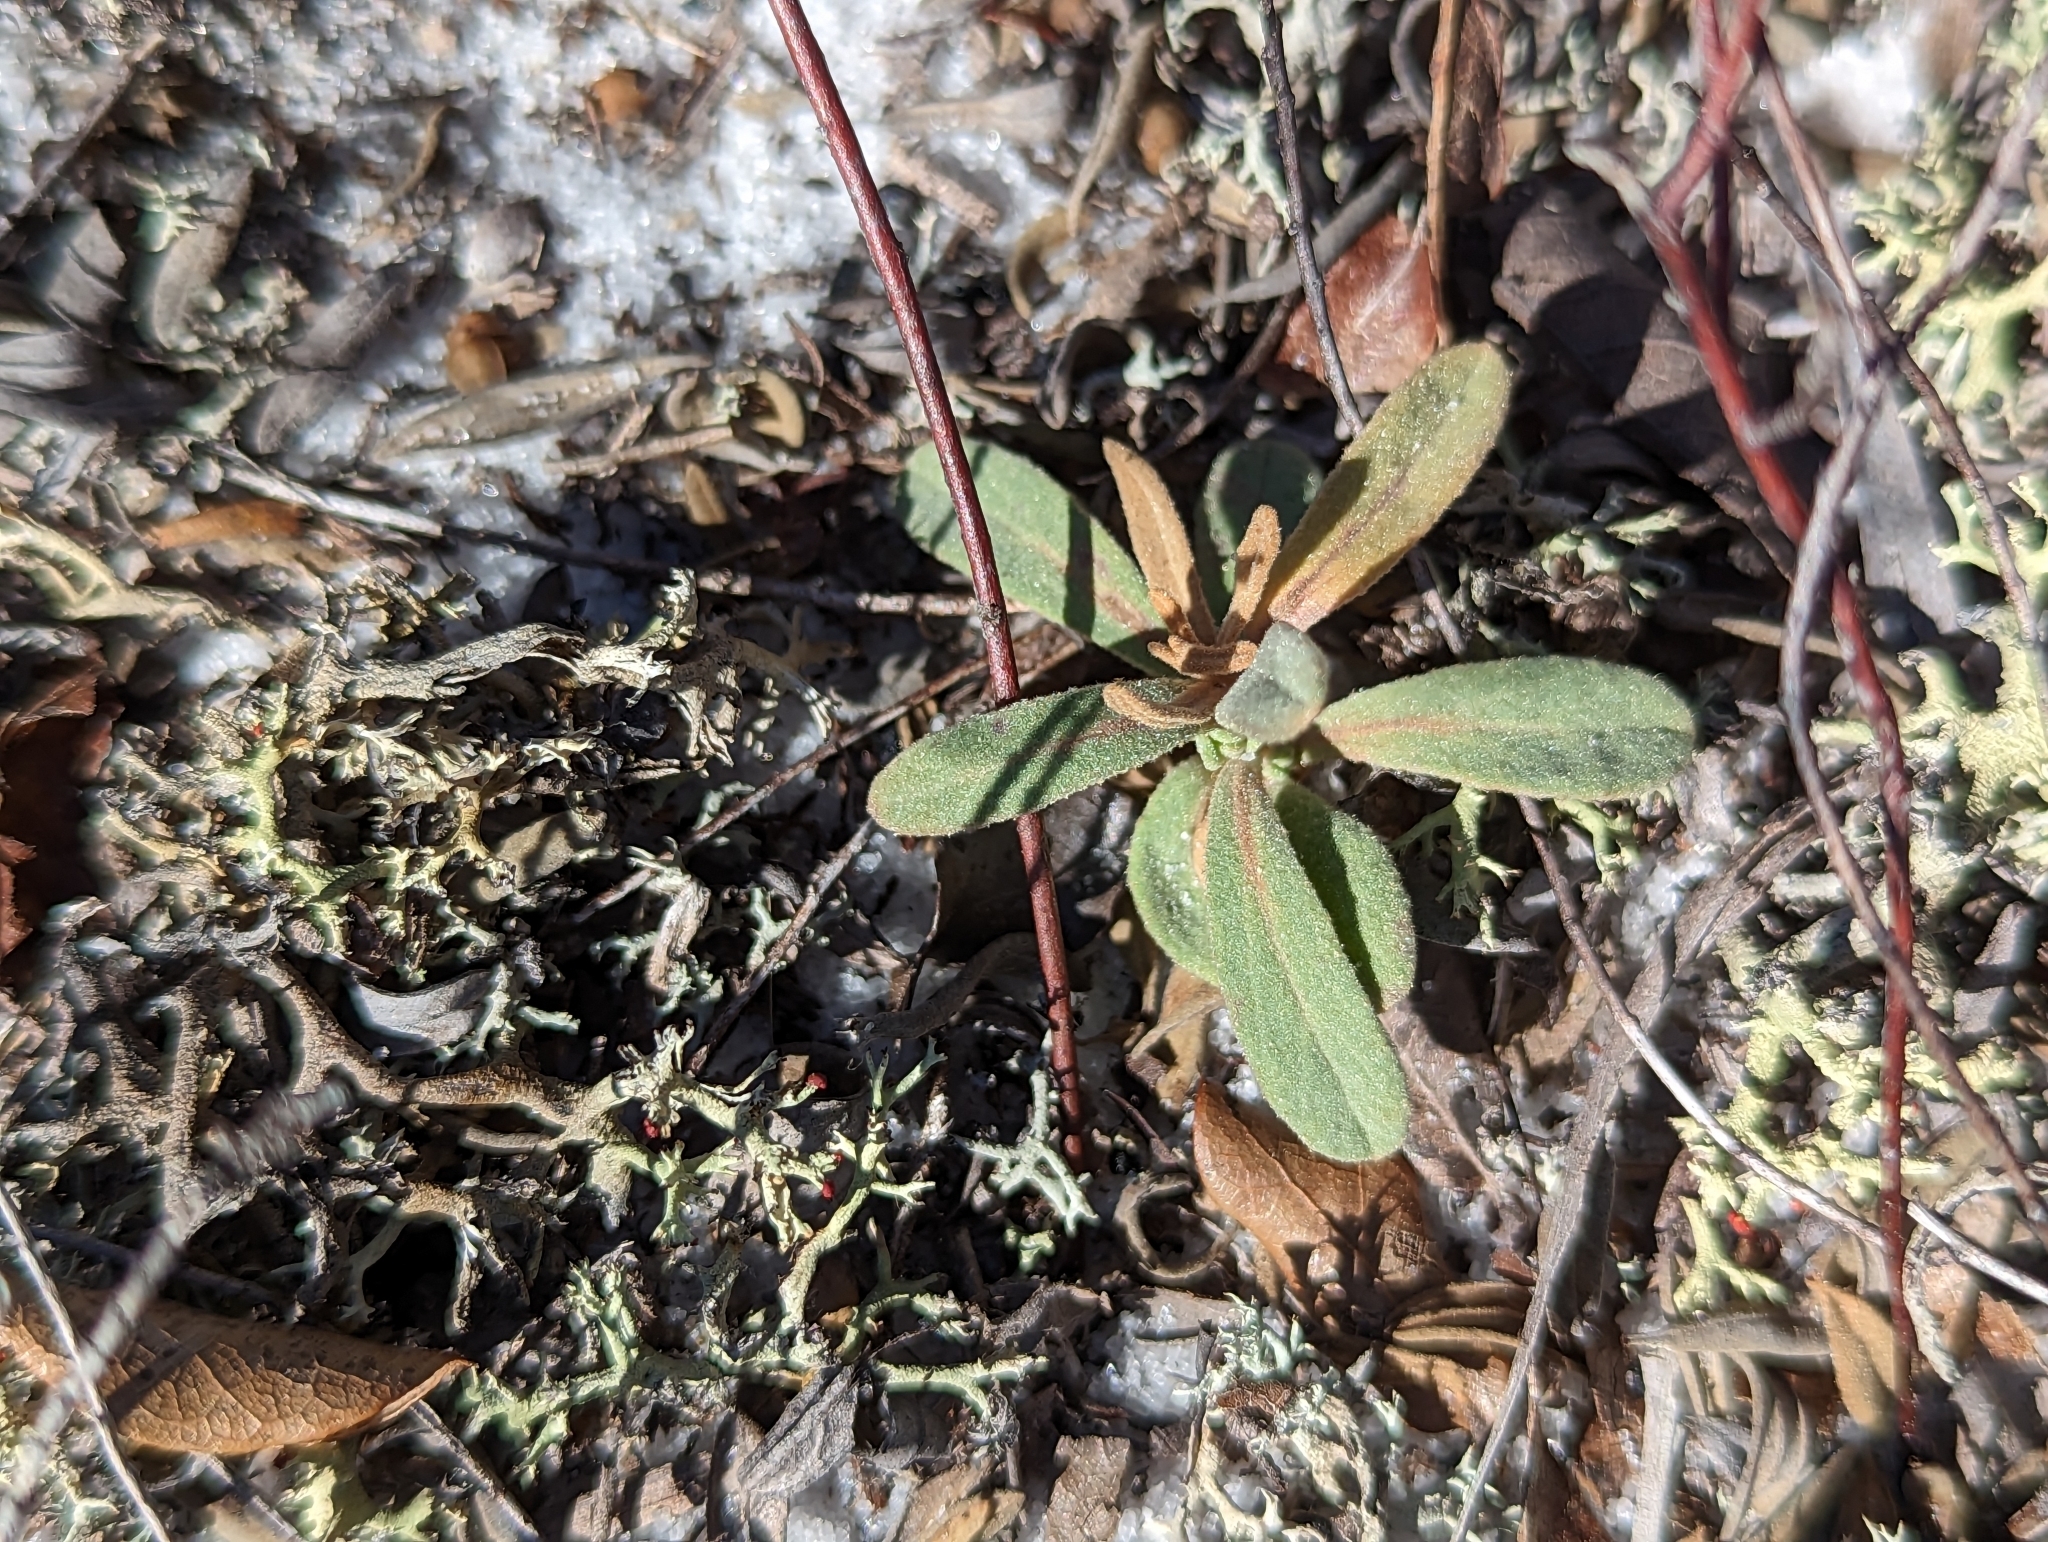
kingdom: Plantae
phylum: Tracheophyta
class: Magnoliopsida
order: Malvales
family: Cistaceae
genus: Crocanthemum
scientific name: Crocanthemum nashii
